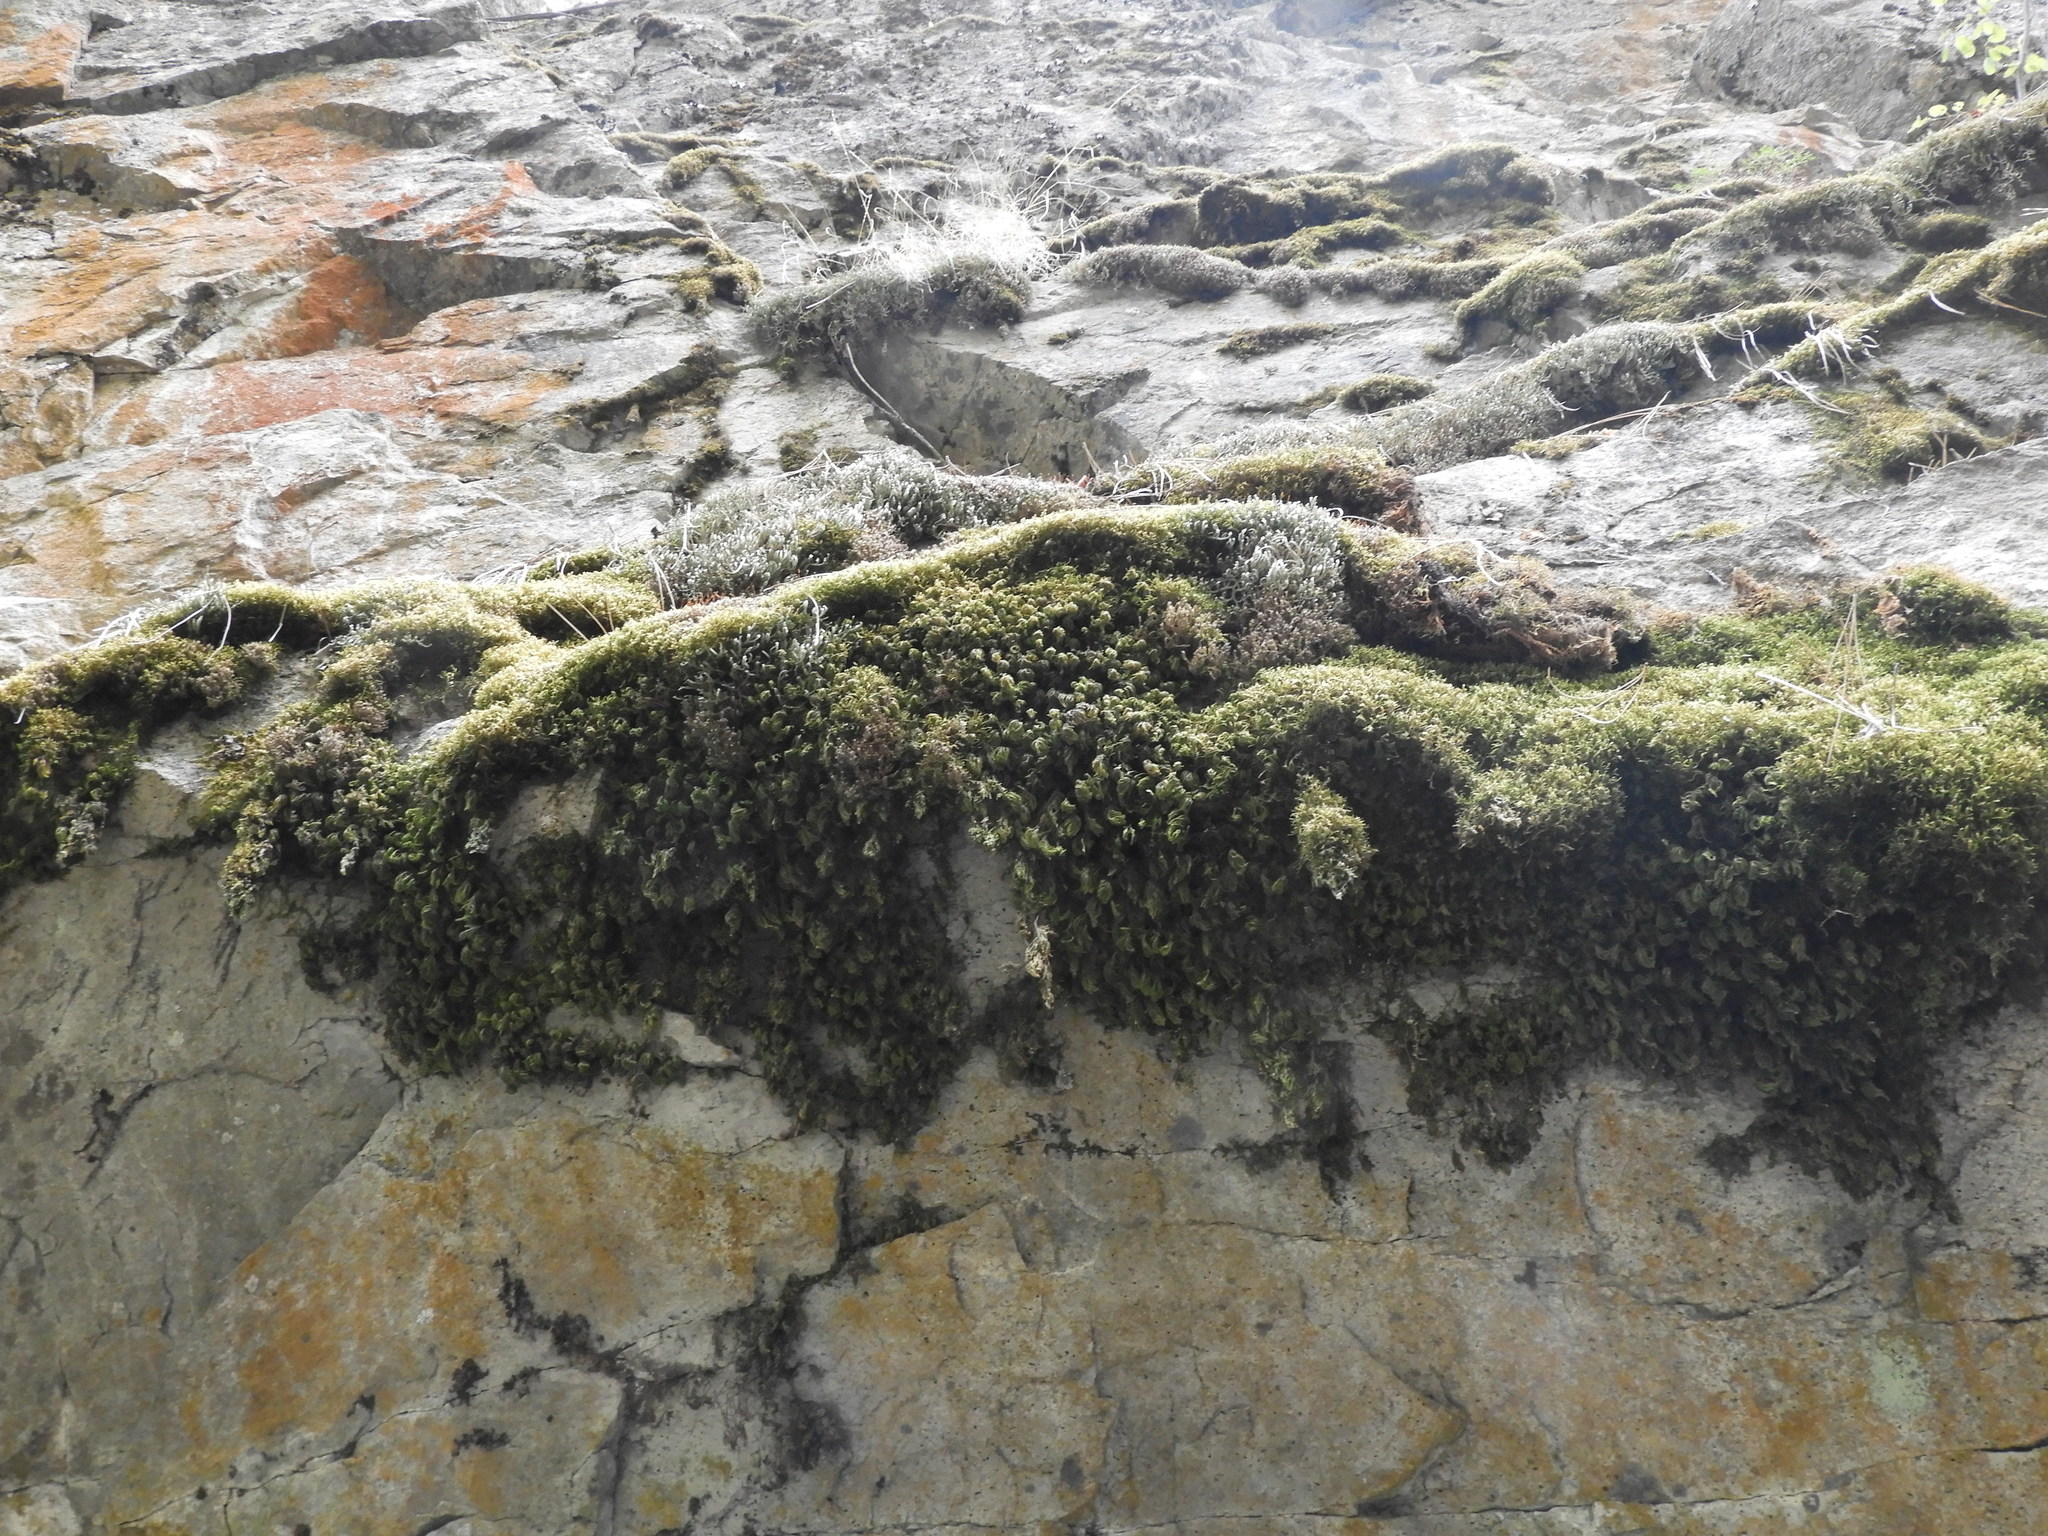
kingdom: Plantae
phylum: Bryophyta
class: Bryopsida
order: Hypnales
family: Cryphaeaceae
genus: Dendroalsia
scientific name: Dendroalsia abietina
